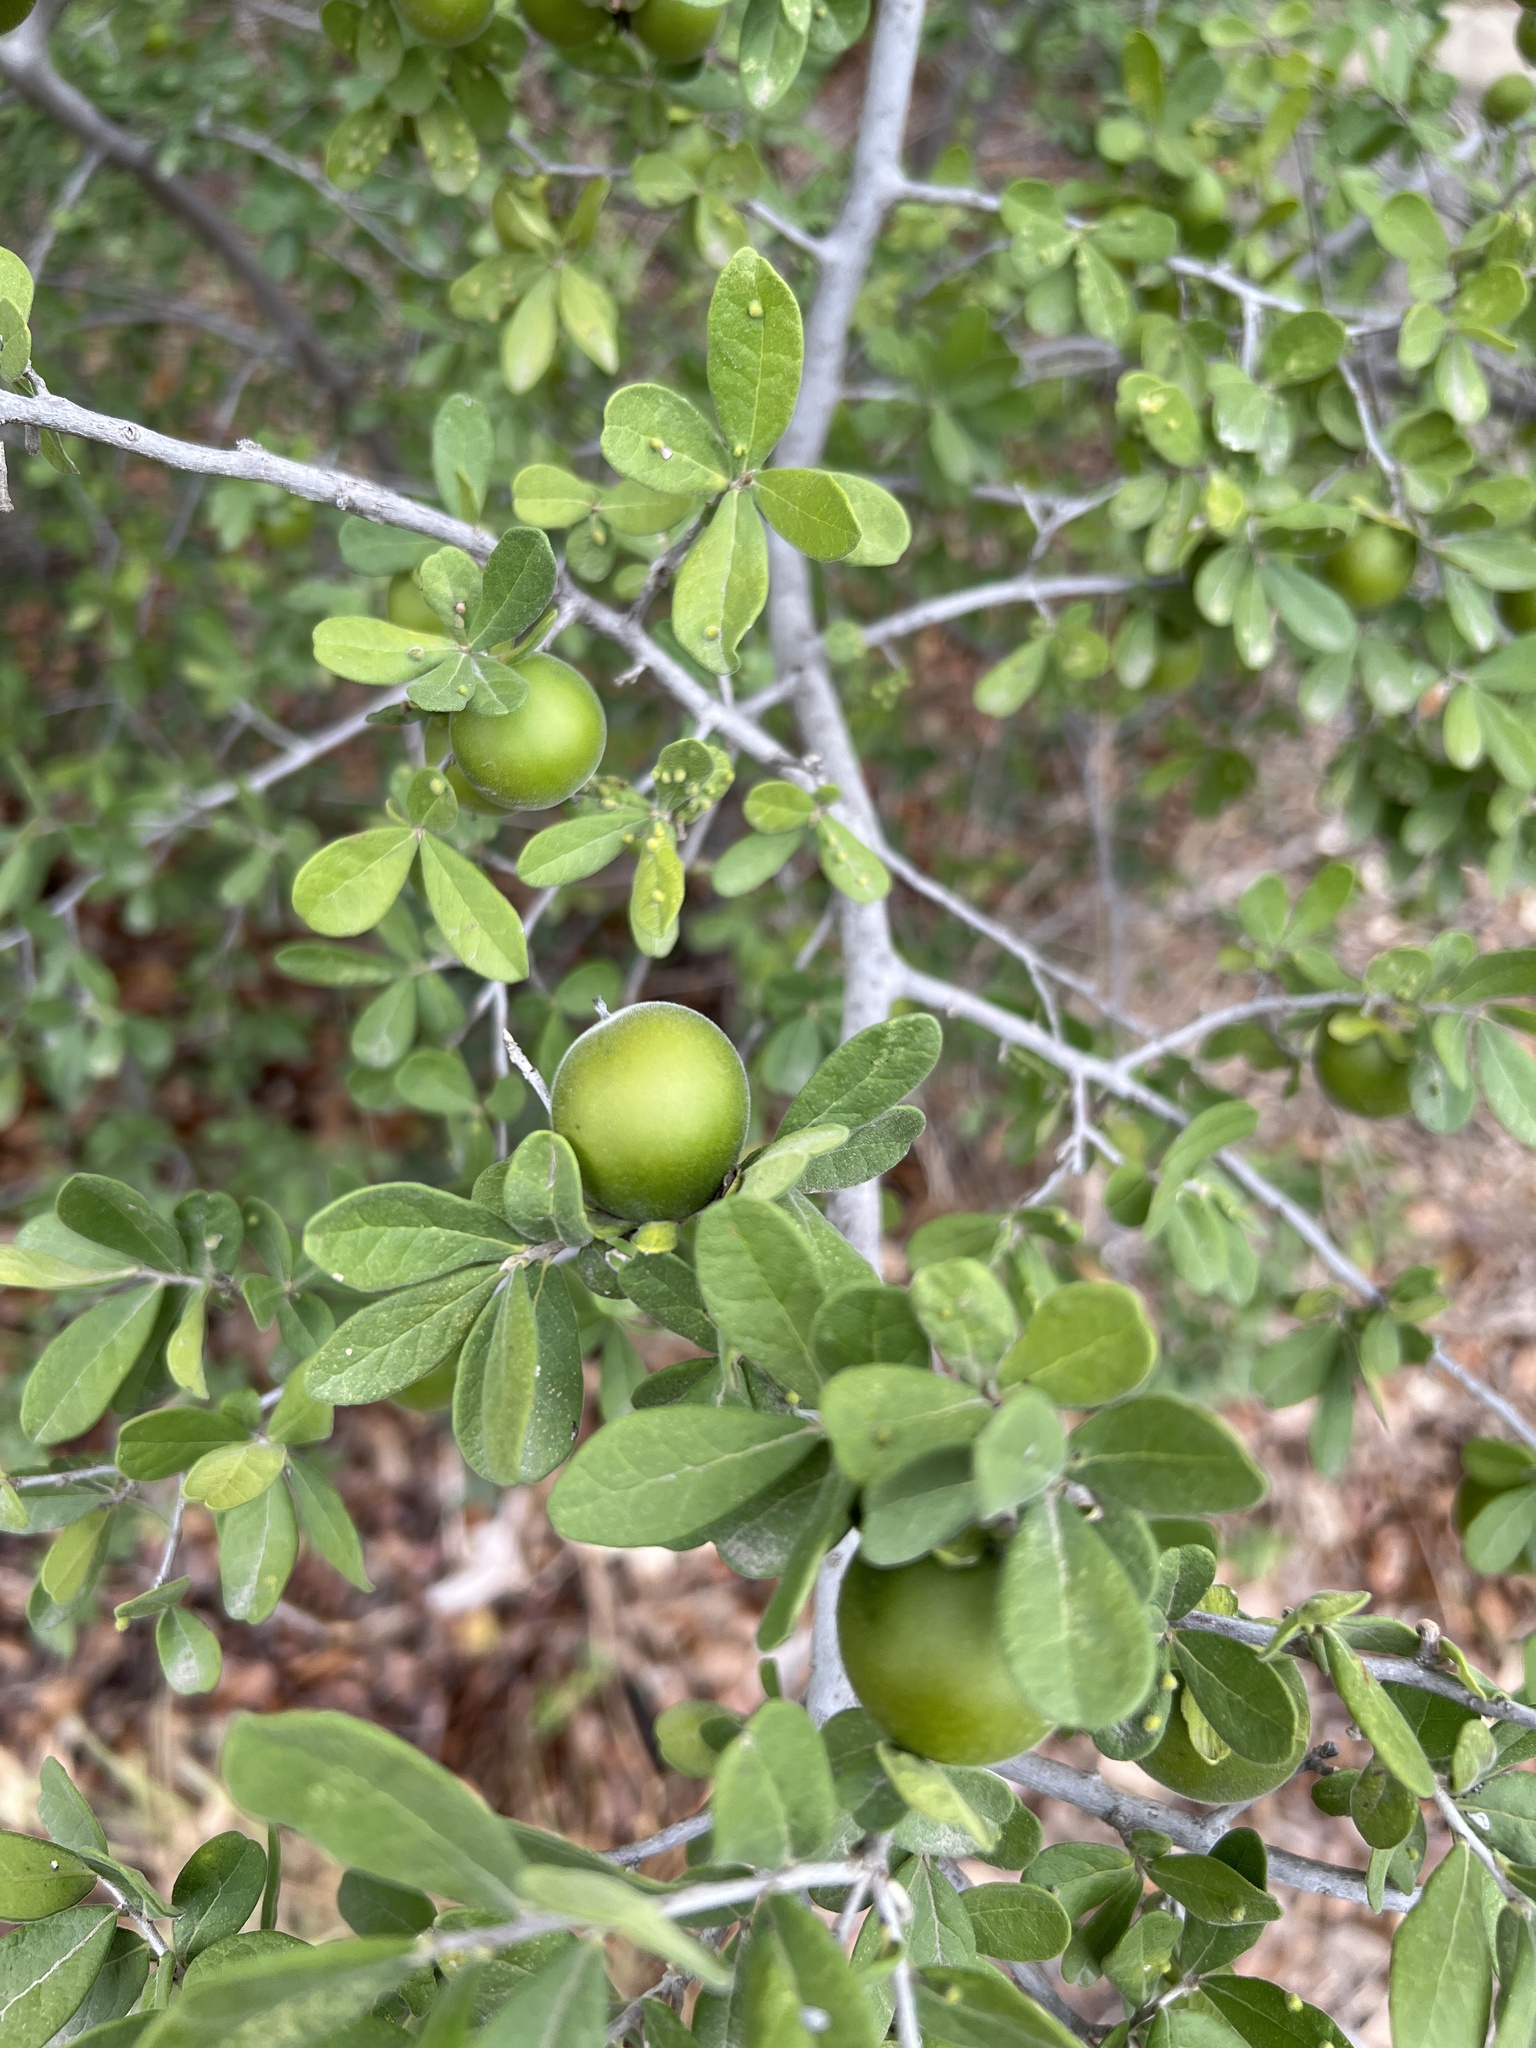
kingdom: Plantae
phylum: Tracheophyta
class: Magnoliopsida
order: Ericales
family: Ebenaceae
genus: Diospyros
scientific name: Diospyros texana
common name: Texas persimmon
